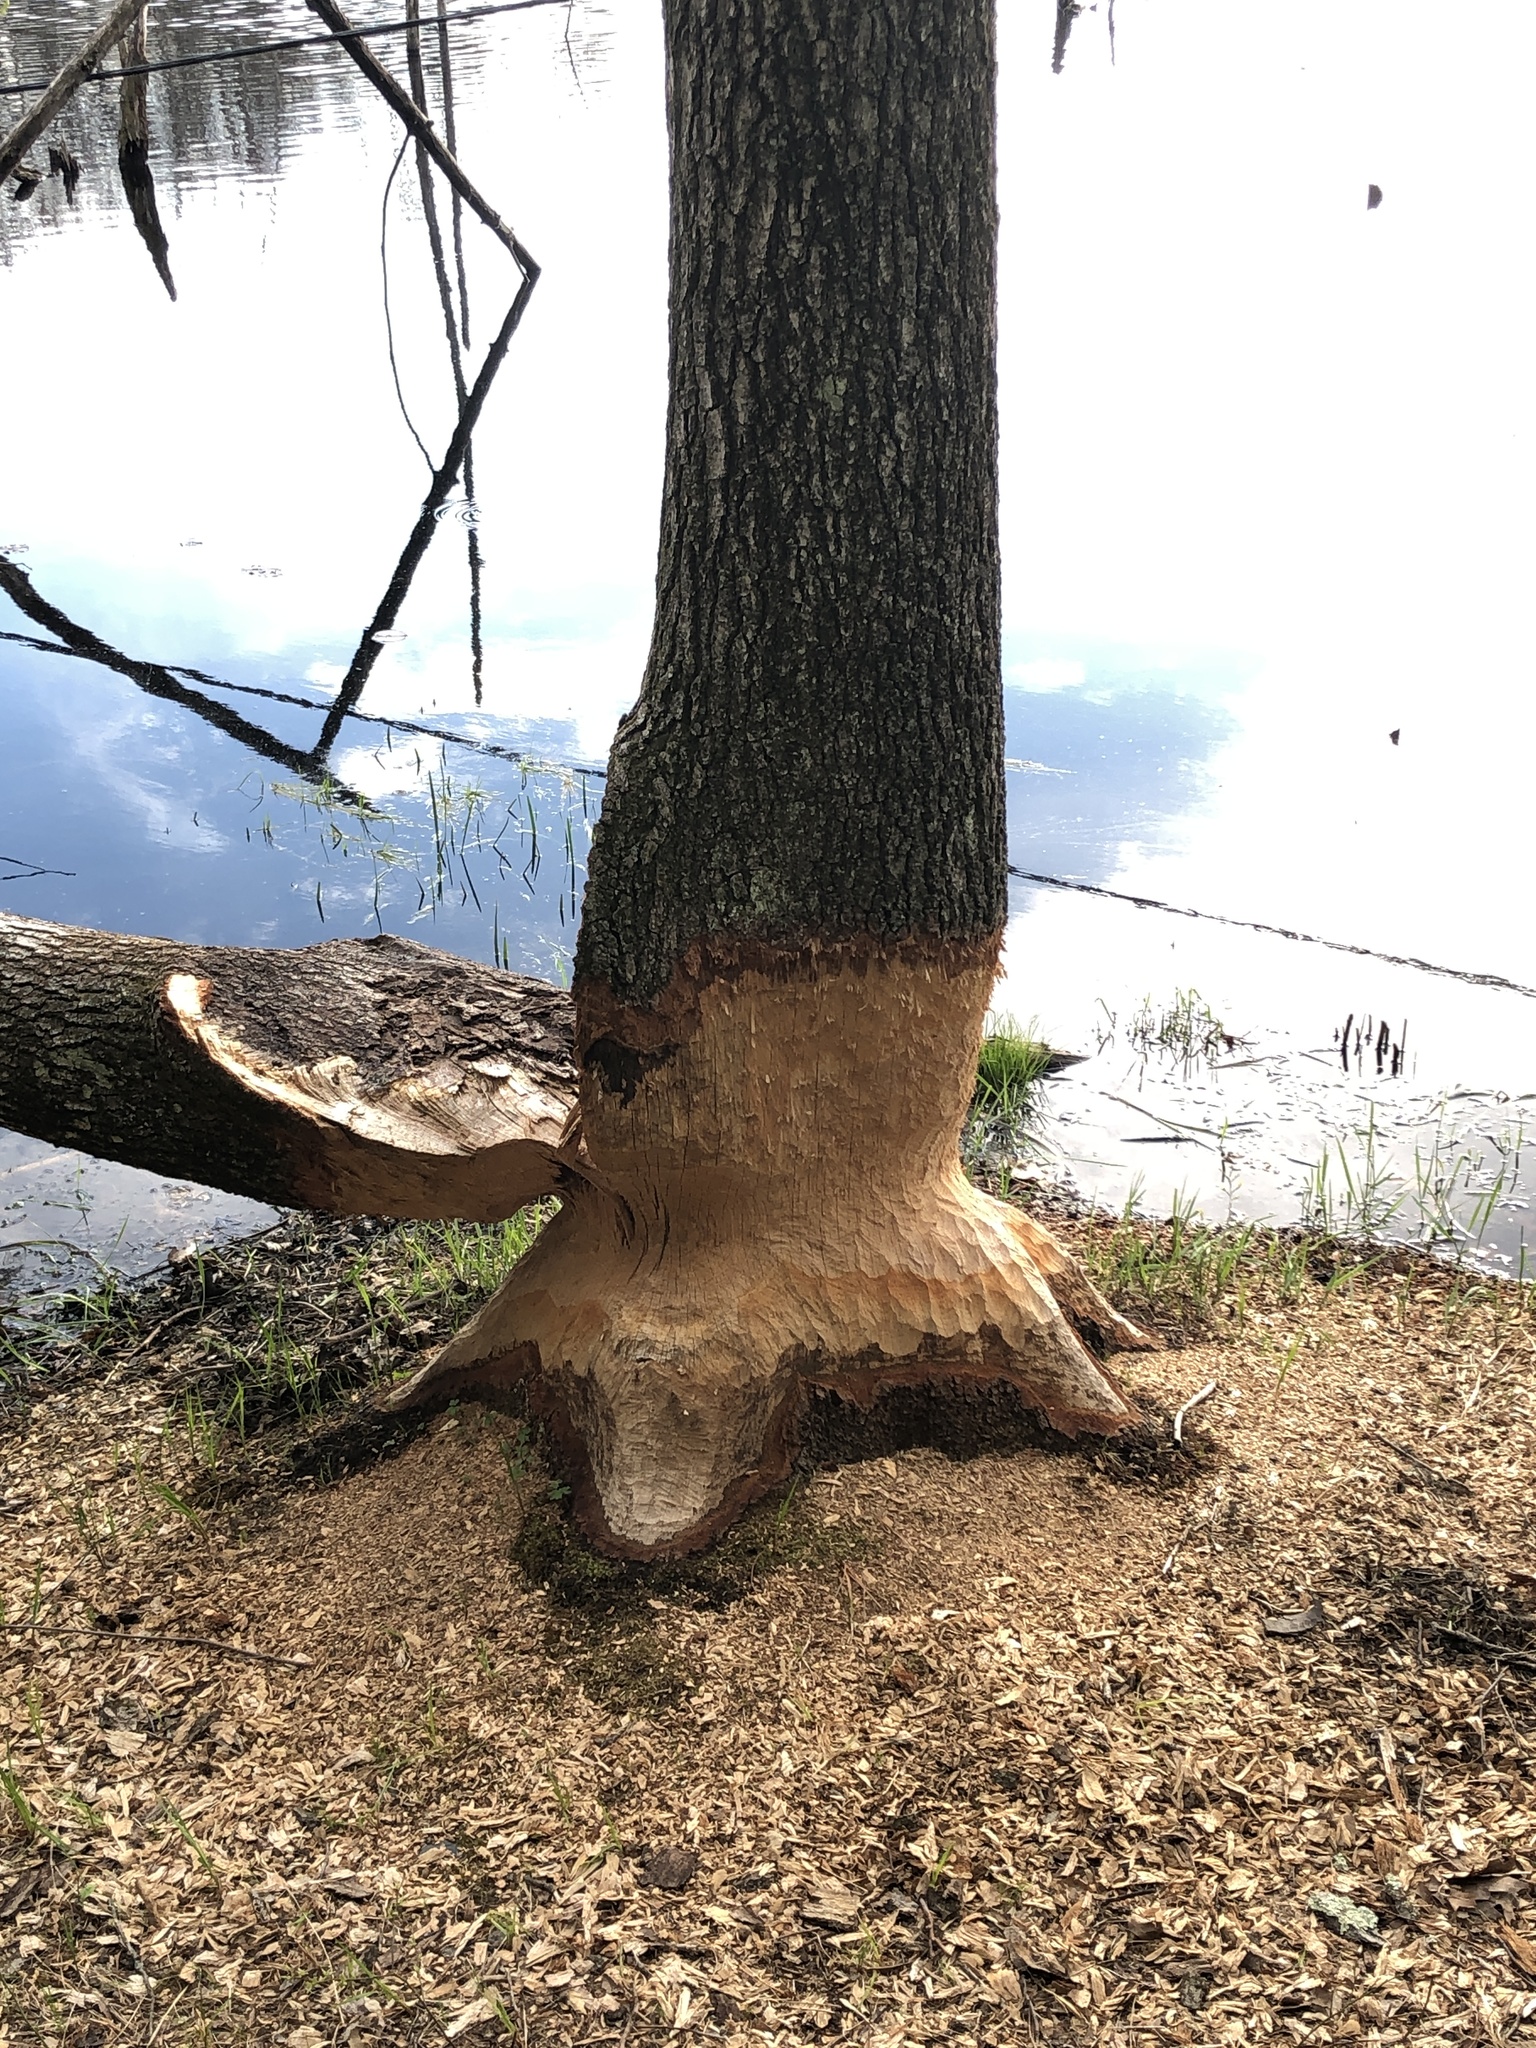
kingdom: Animalia
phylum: Chordata
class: Mammalia
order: Rodentia
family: Castoridae
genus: Castor
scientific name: Castor canadensis
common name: American beaver
